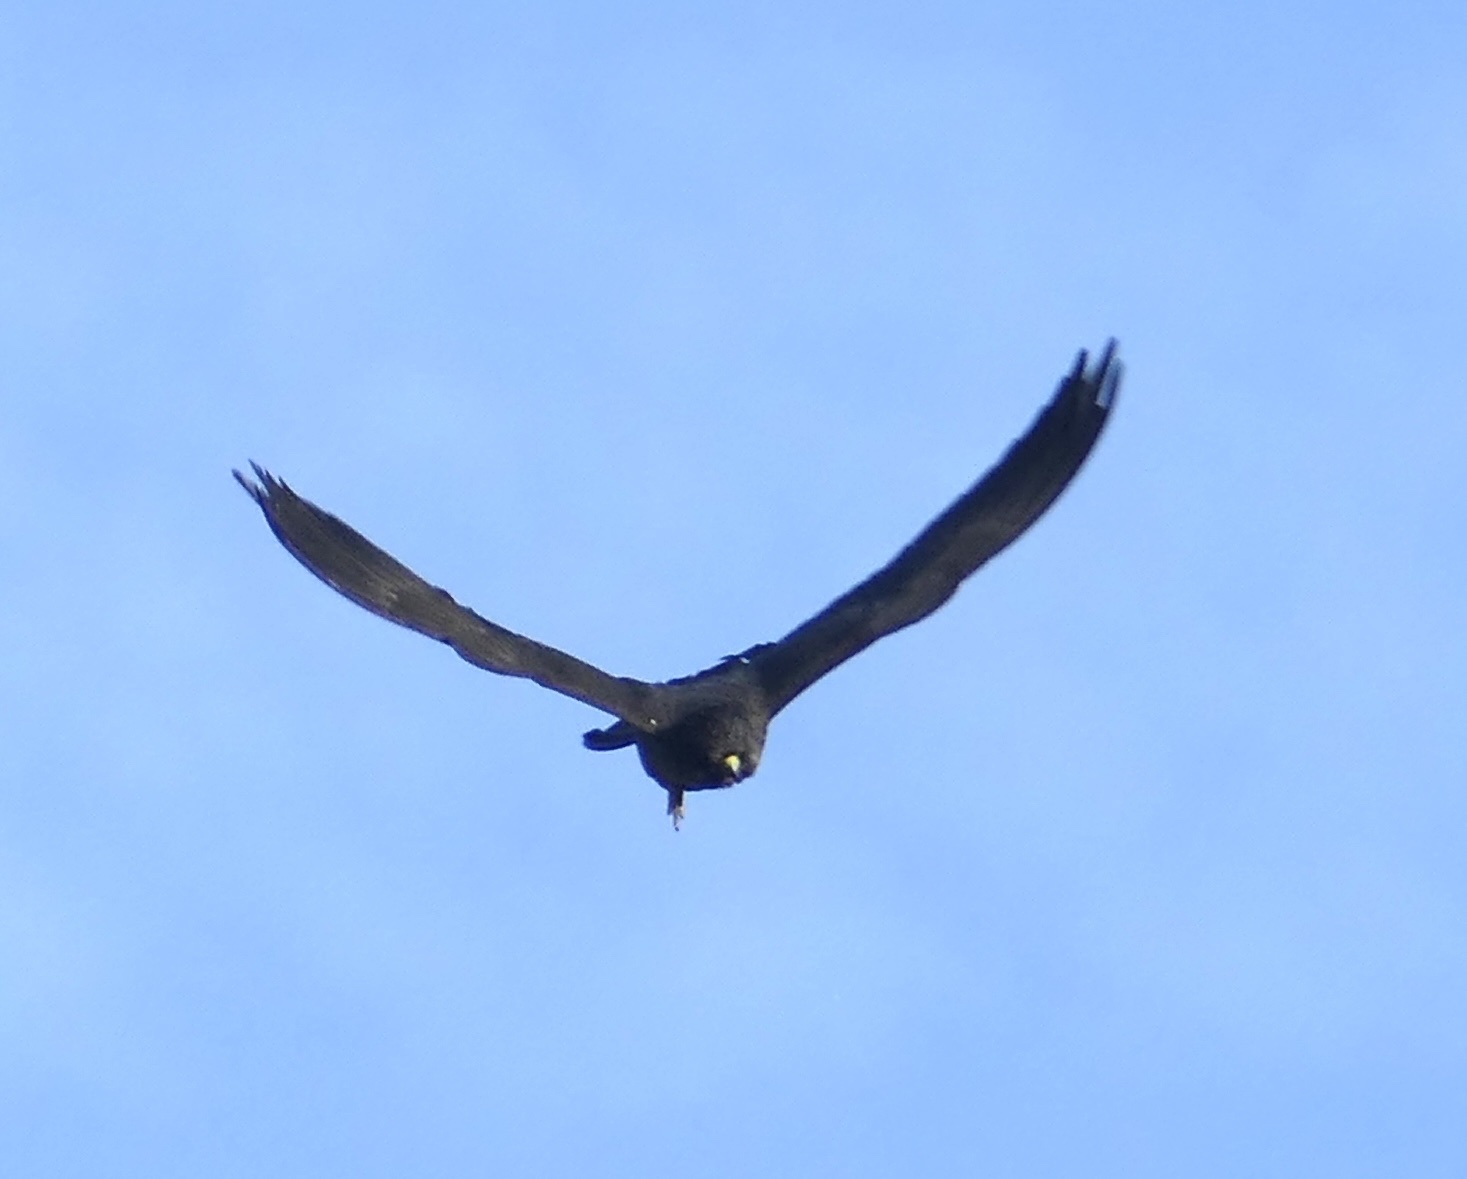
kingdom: Animalia
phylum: Chordata
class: Aves
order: Falconiformes
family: Falconidae
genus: Falco
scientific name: Falco eleonorae
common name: Eleonora's falcon
